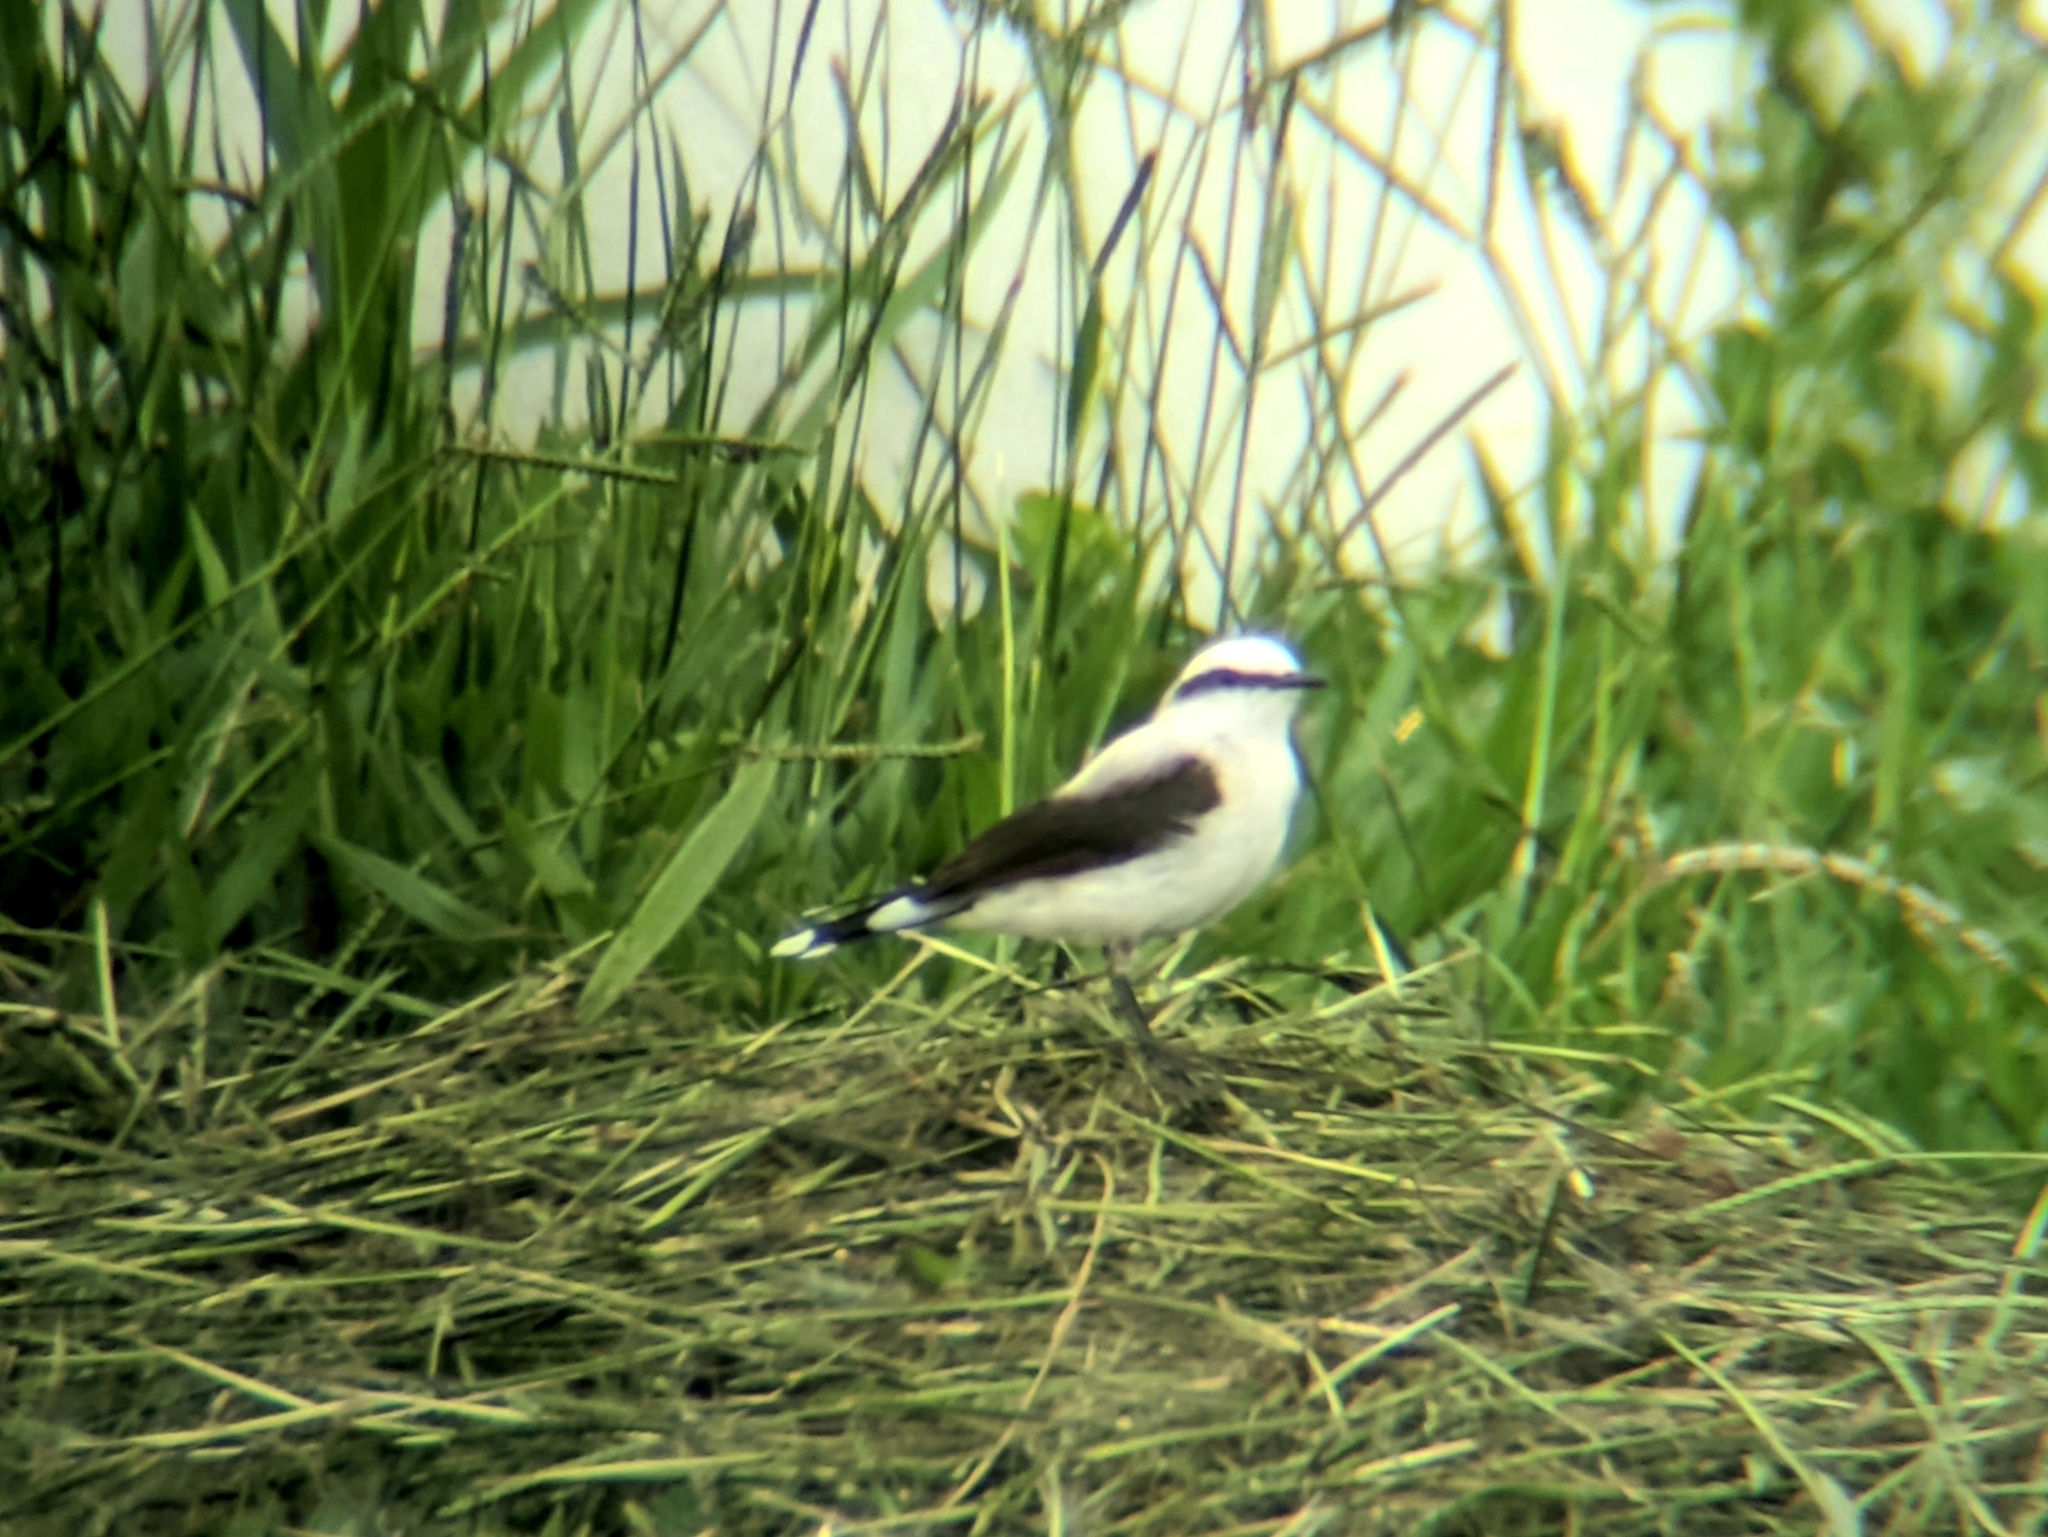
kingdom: Animalia
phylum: Chordata
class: Aves
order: Passeriformes
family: Tyrannidae
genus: Fluvicola
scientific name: Fluvicola nengeta
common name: Masked water tyrant
